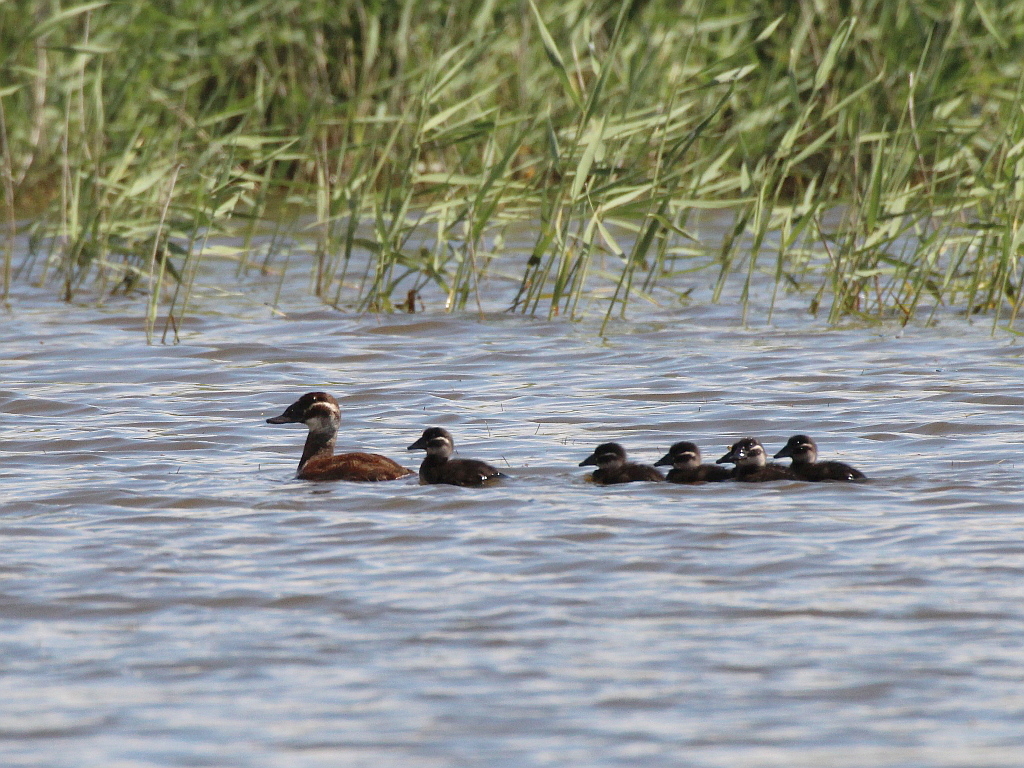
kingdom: Animalia
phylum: Chordata
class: Aves
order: Anseriformes
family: Anatidae
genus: Oxyura
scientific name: Oxyura leucocephala
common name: White-headed duck
